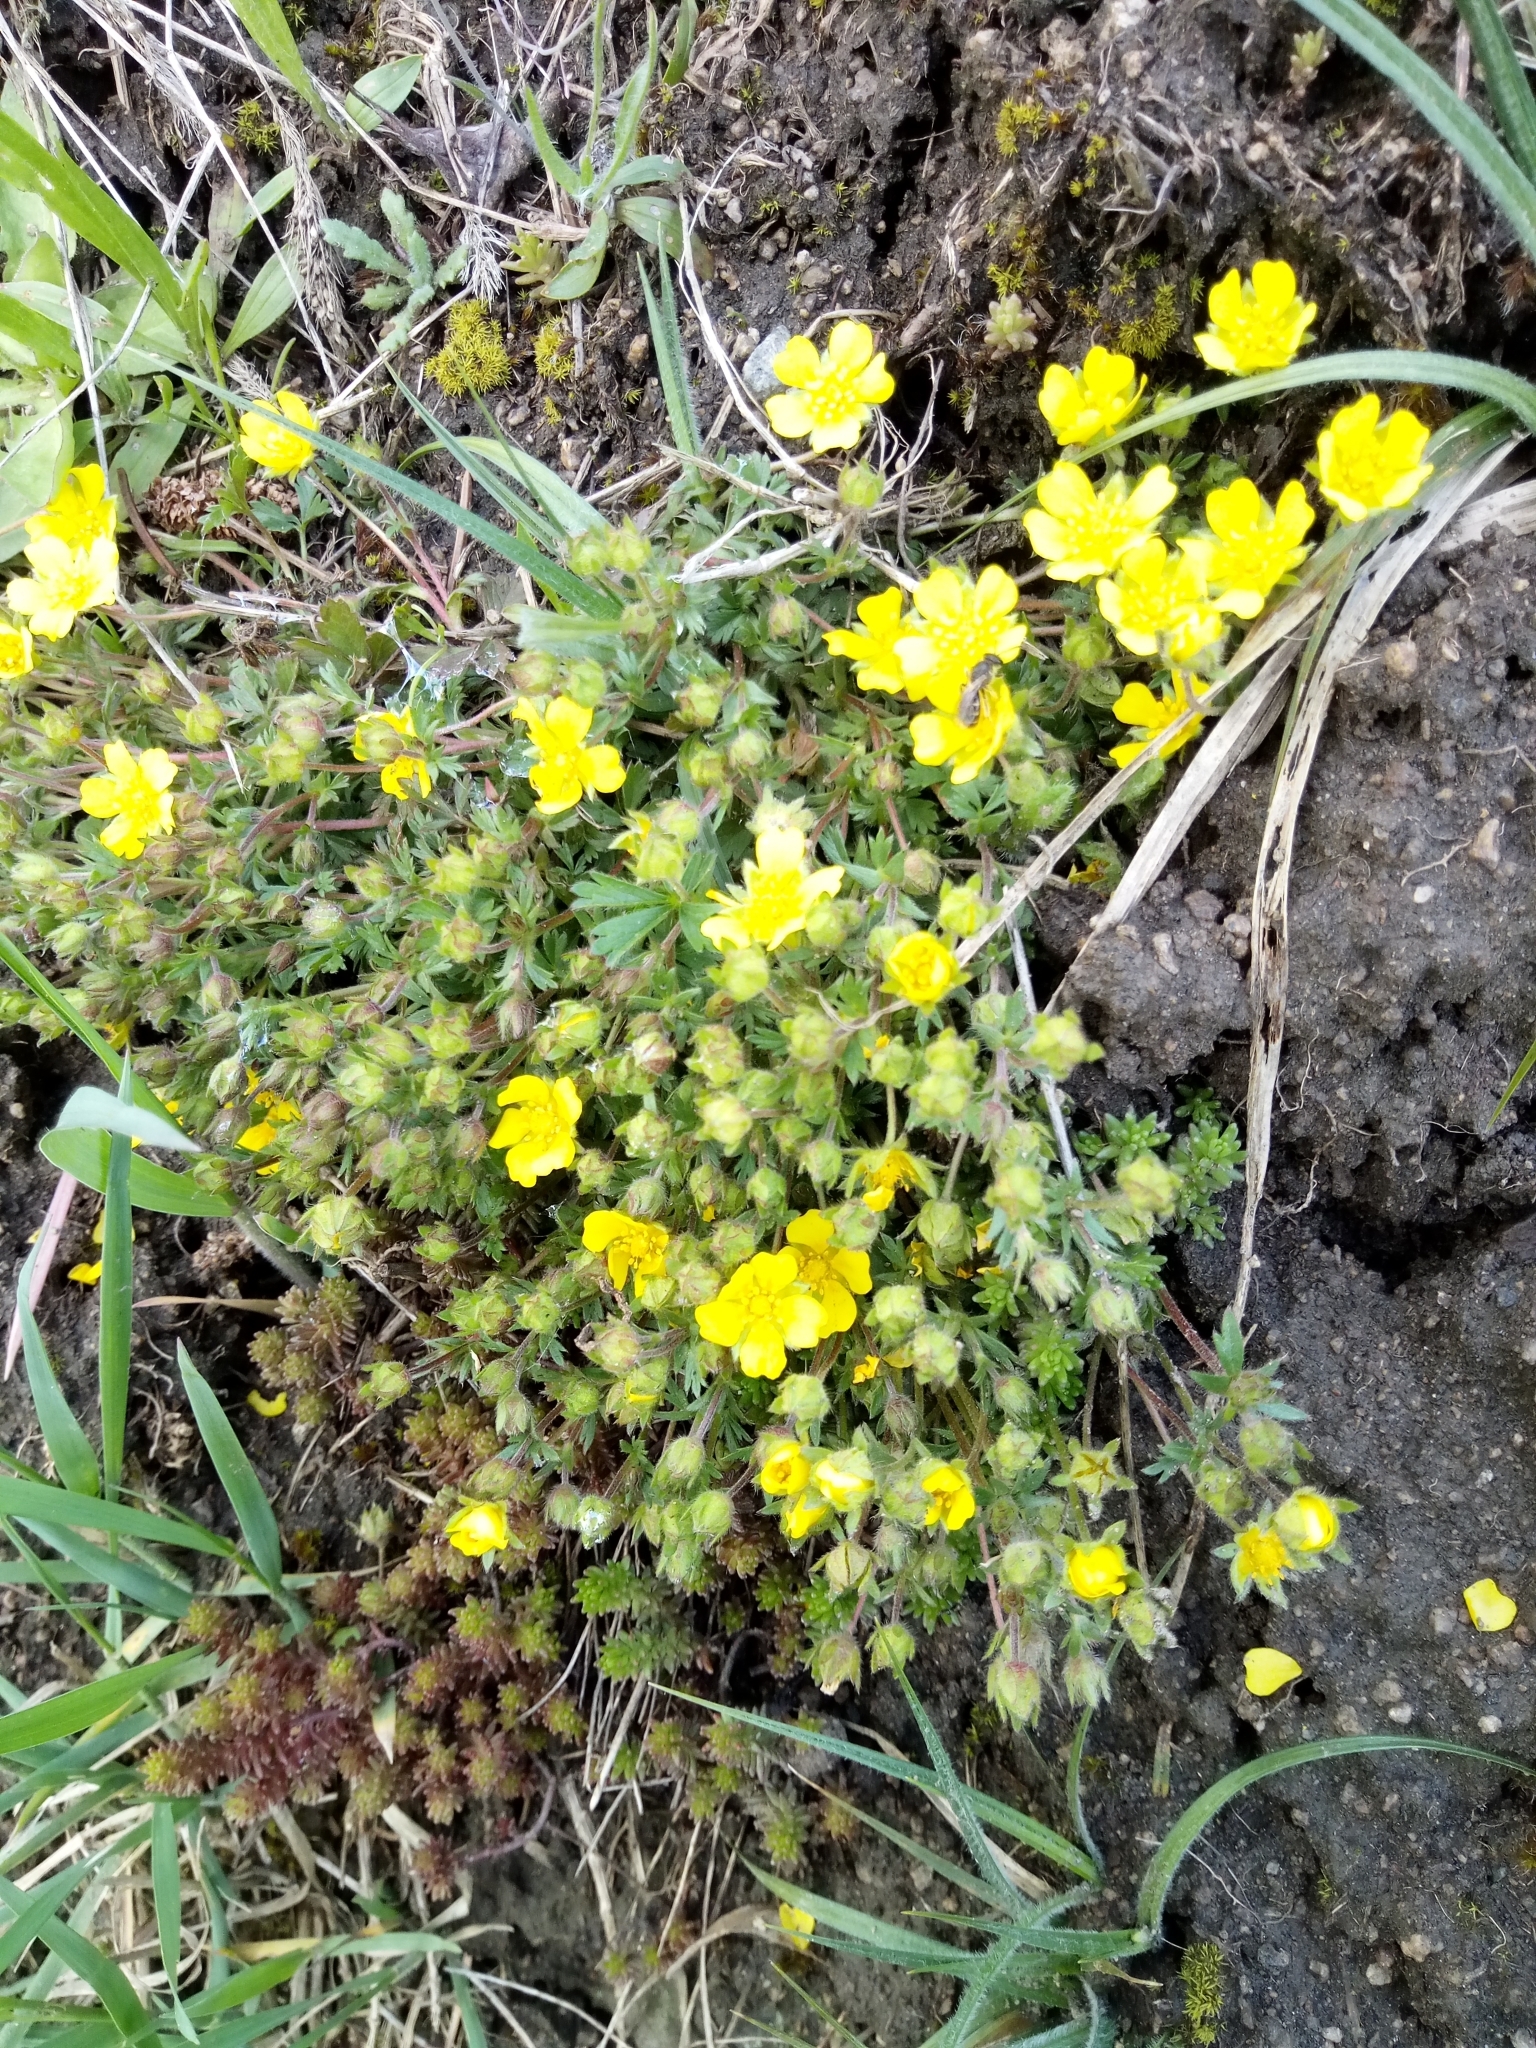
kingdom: Plantae
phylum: Tracheophyta
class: Magnoliopsida
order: Rosales
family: Rosaceae
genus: Potentilla
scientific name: Potentilla verna
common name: Spring cinquefoil
